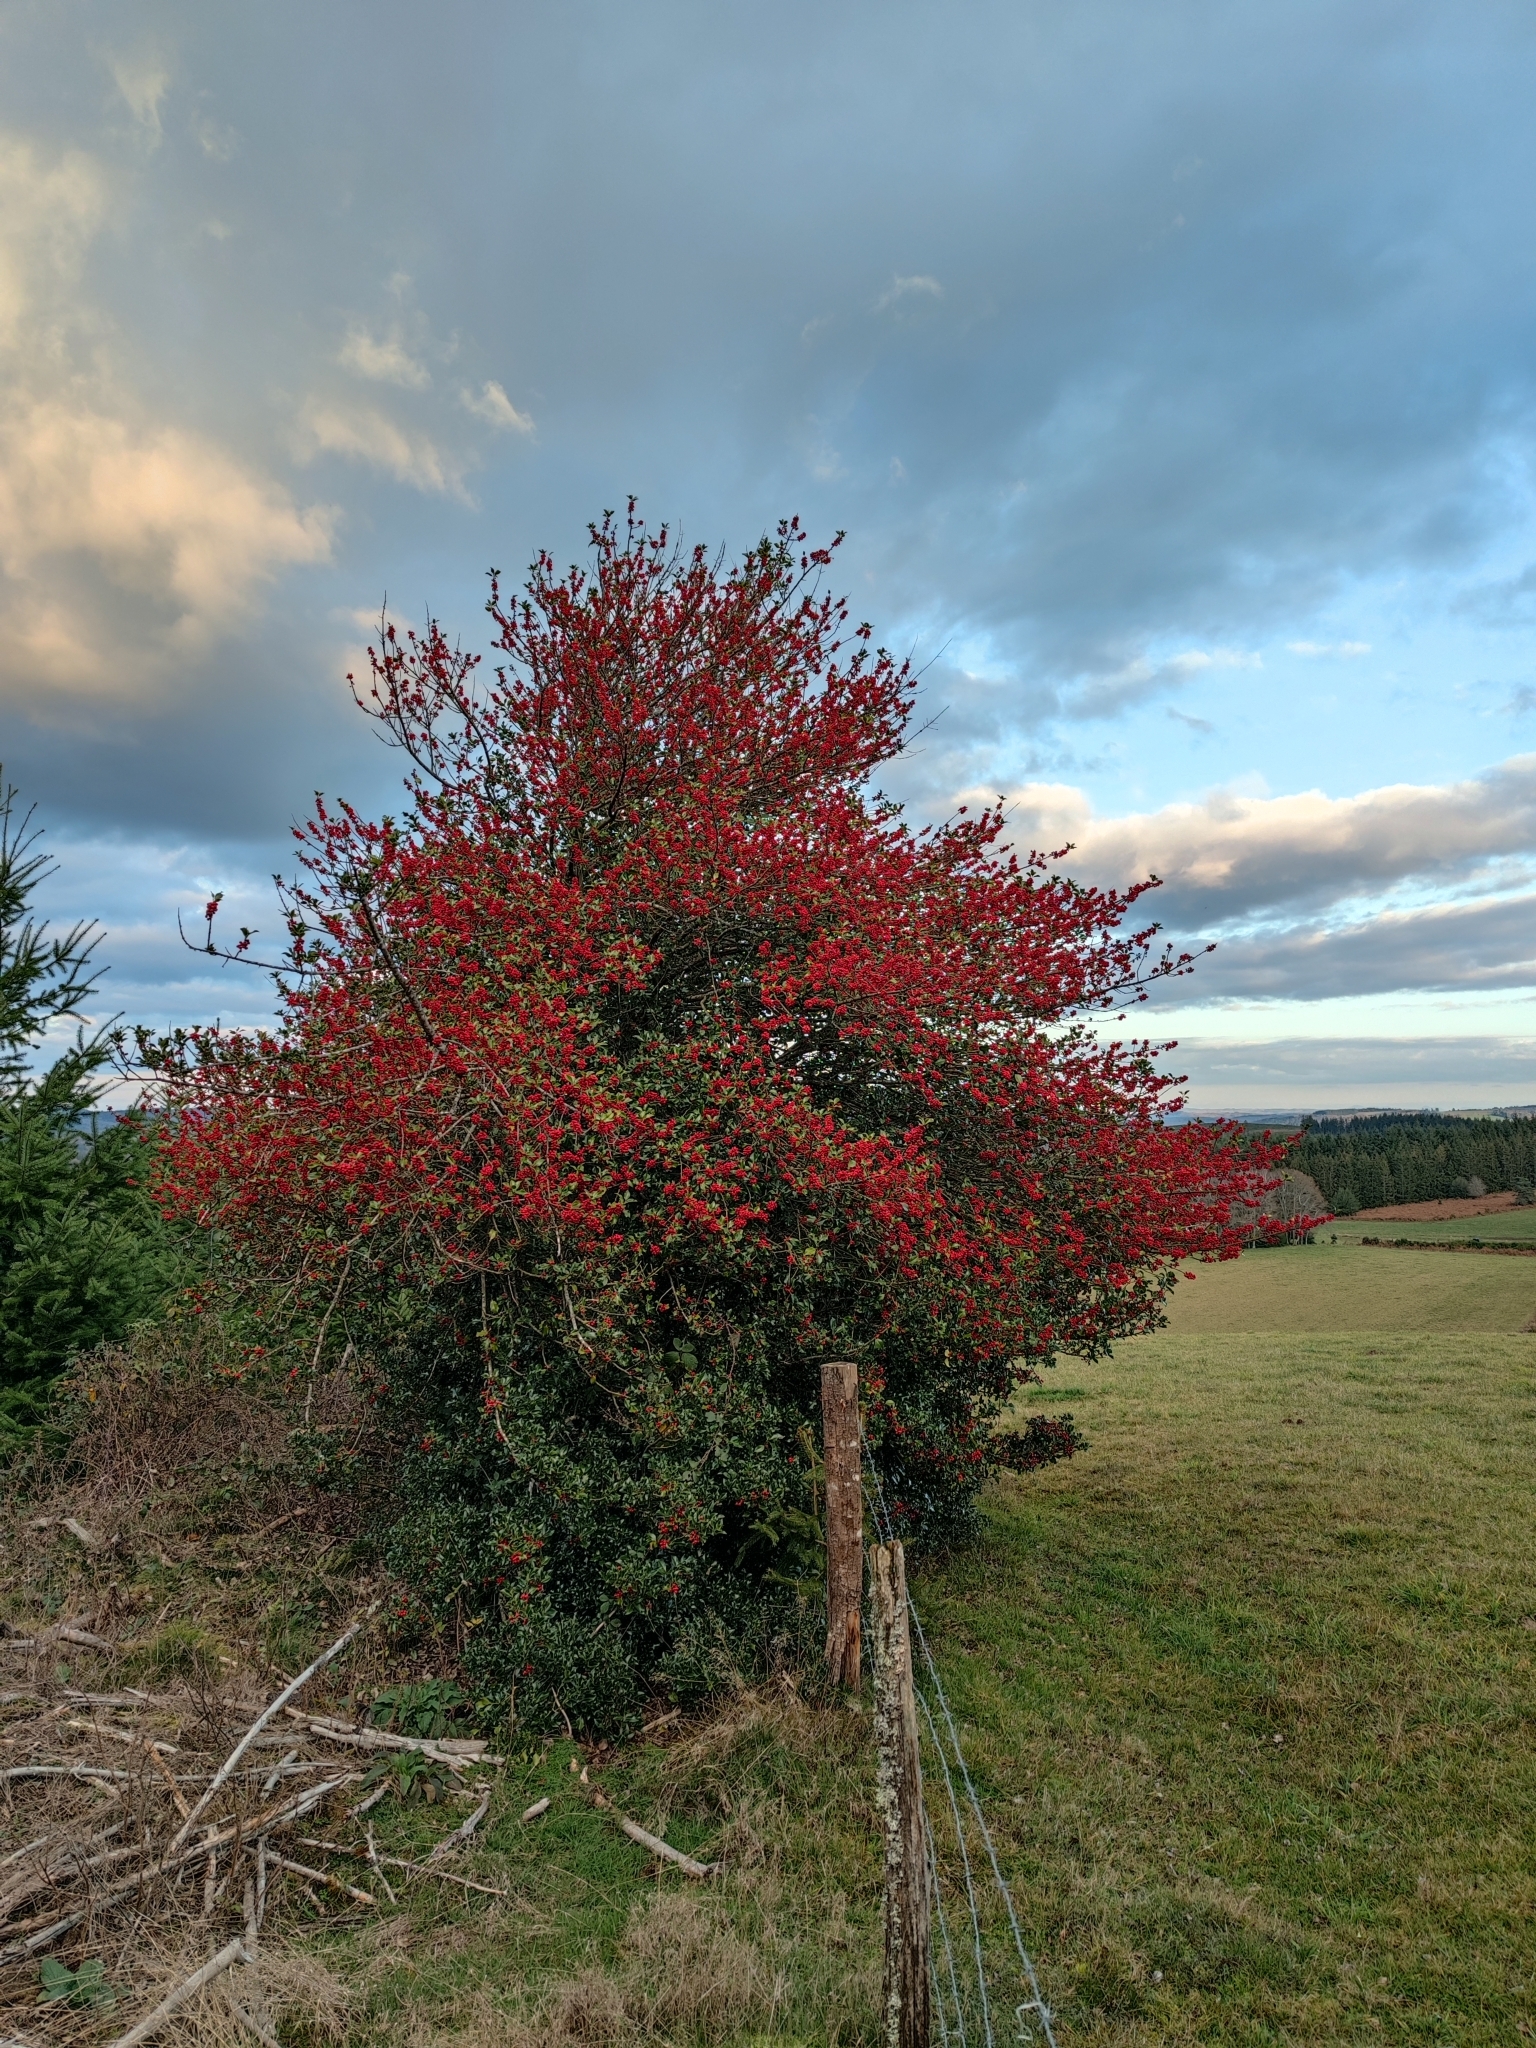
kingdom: Plantae
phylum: Tracheophyta
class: Magnoliopsida
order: Aquifoliales
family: Aquifoliaceae
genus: Ilex
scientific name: Ilex aquifolium
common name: English holly
